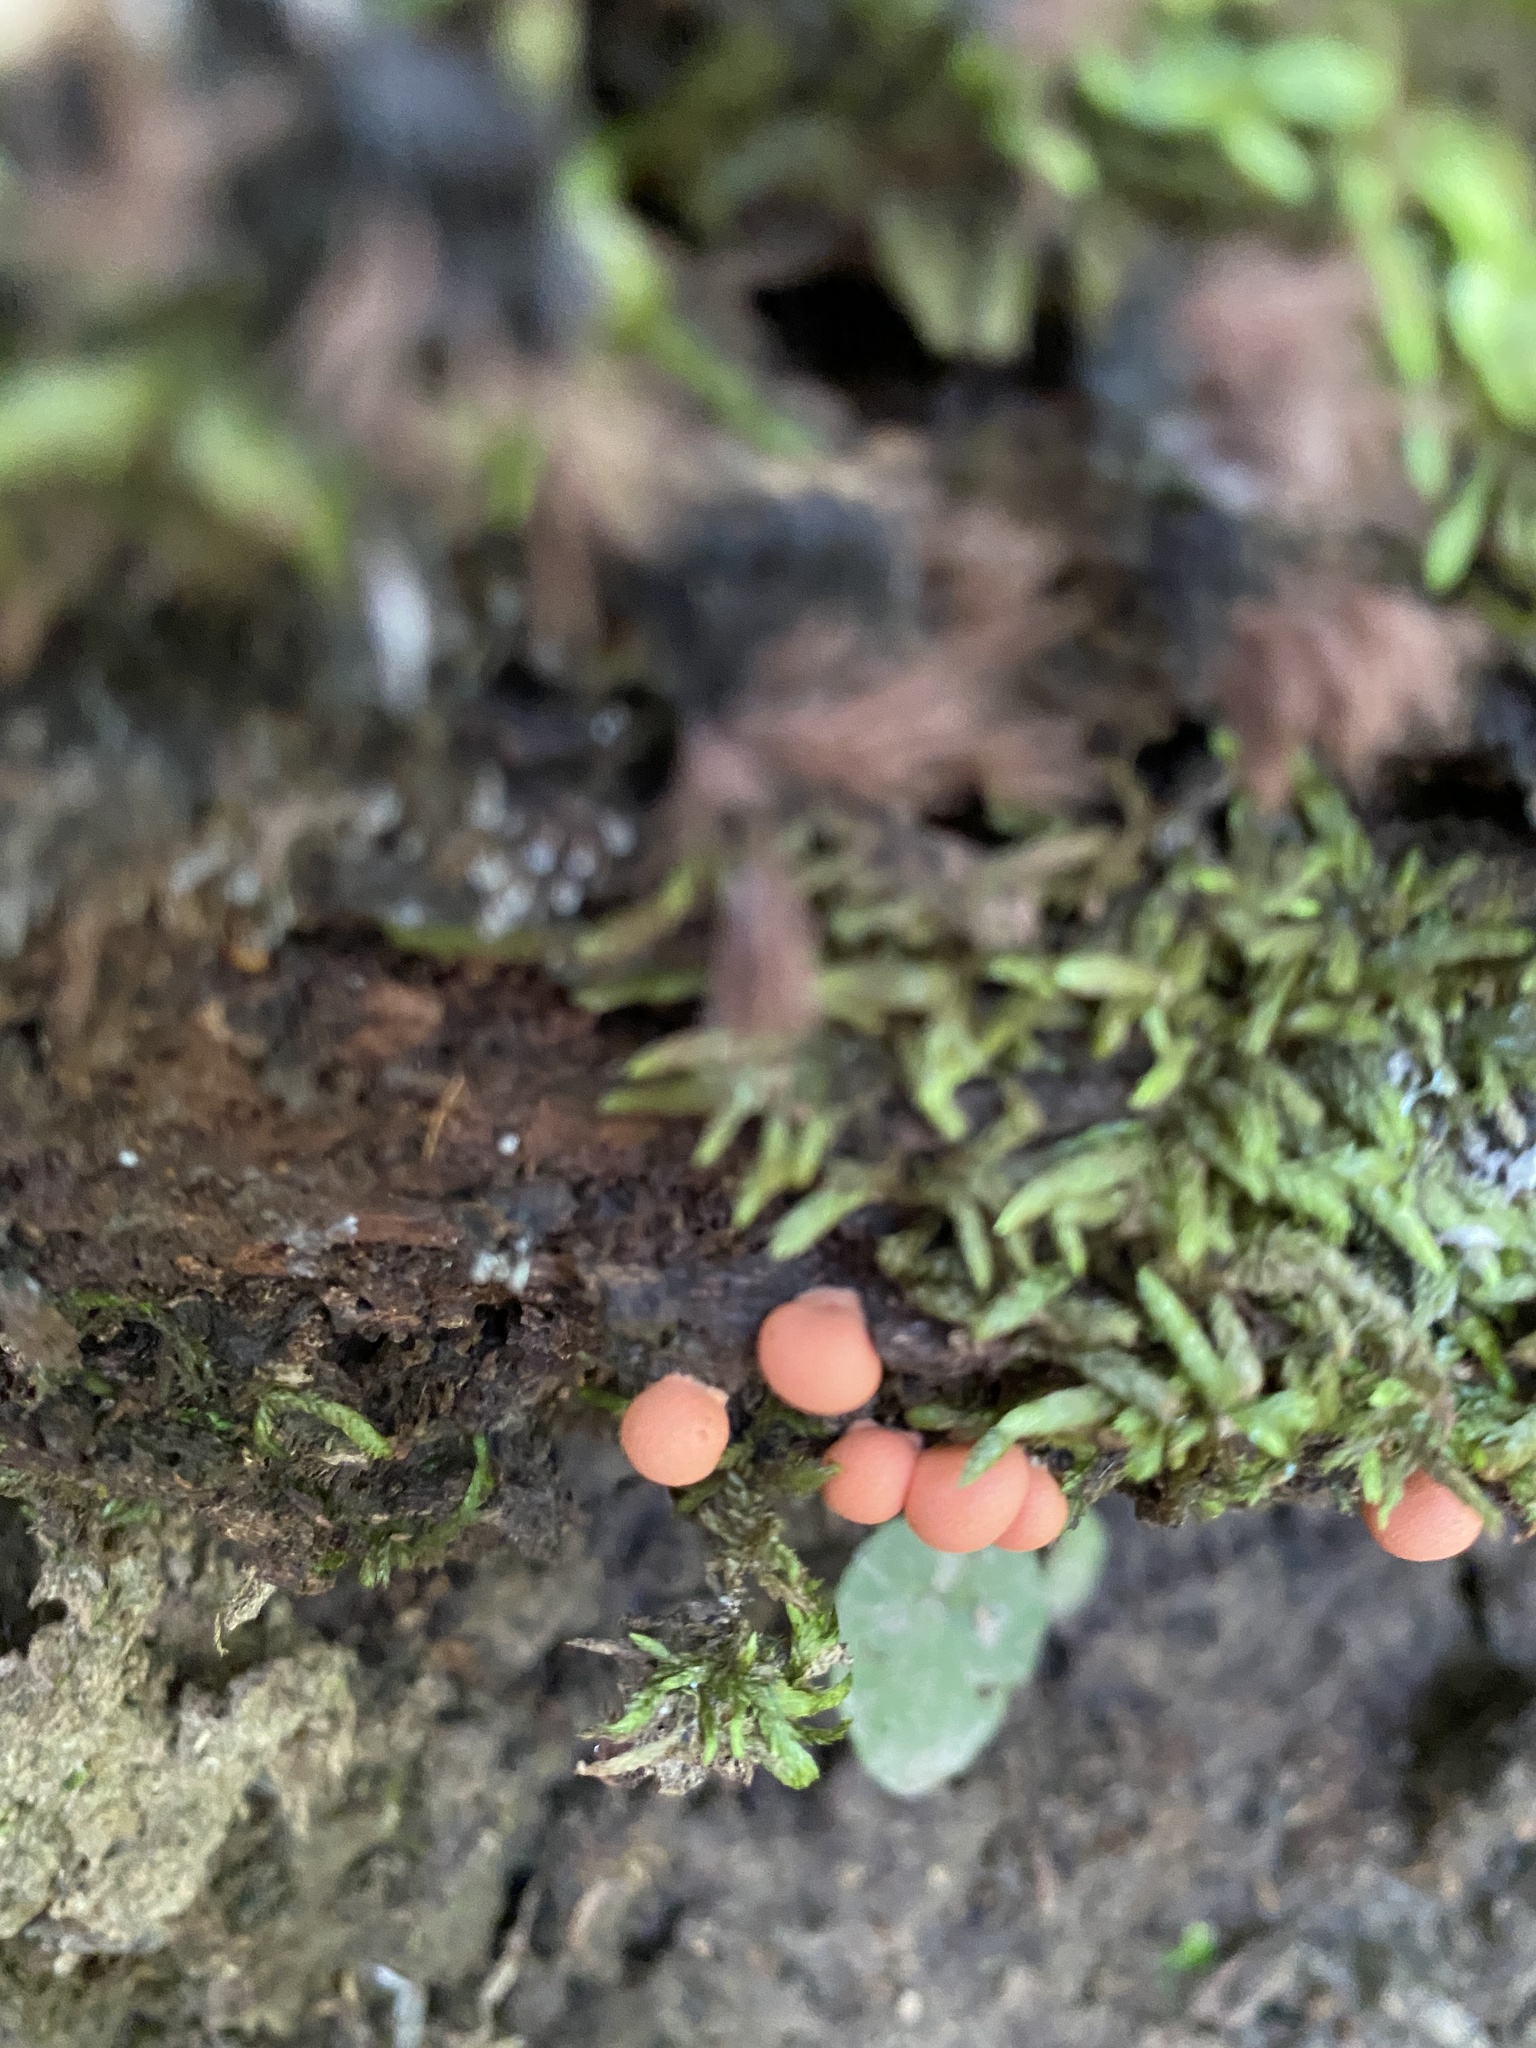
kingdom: Protozoa
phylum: Mycetozoa
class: Myxomycetes
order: Cribrariales
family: Tubiferaceae
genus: Lycogala
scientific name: Lycogala epidendrum
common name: Wolf's milk
